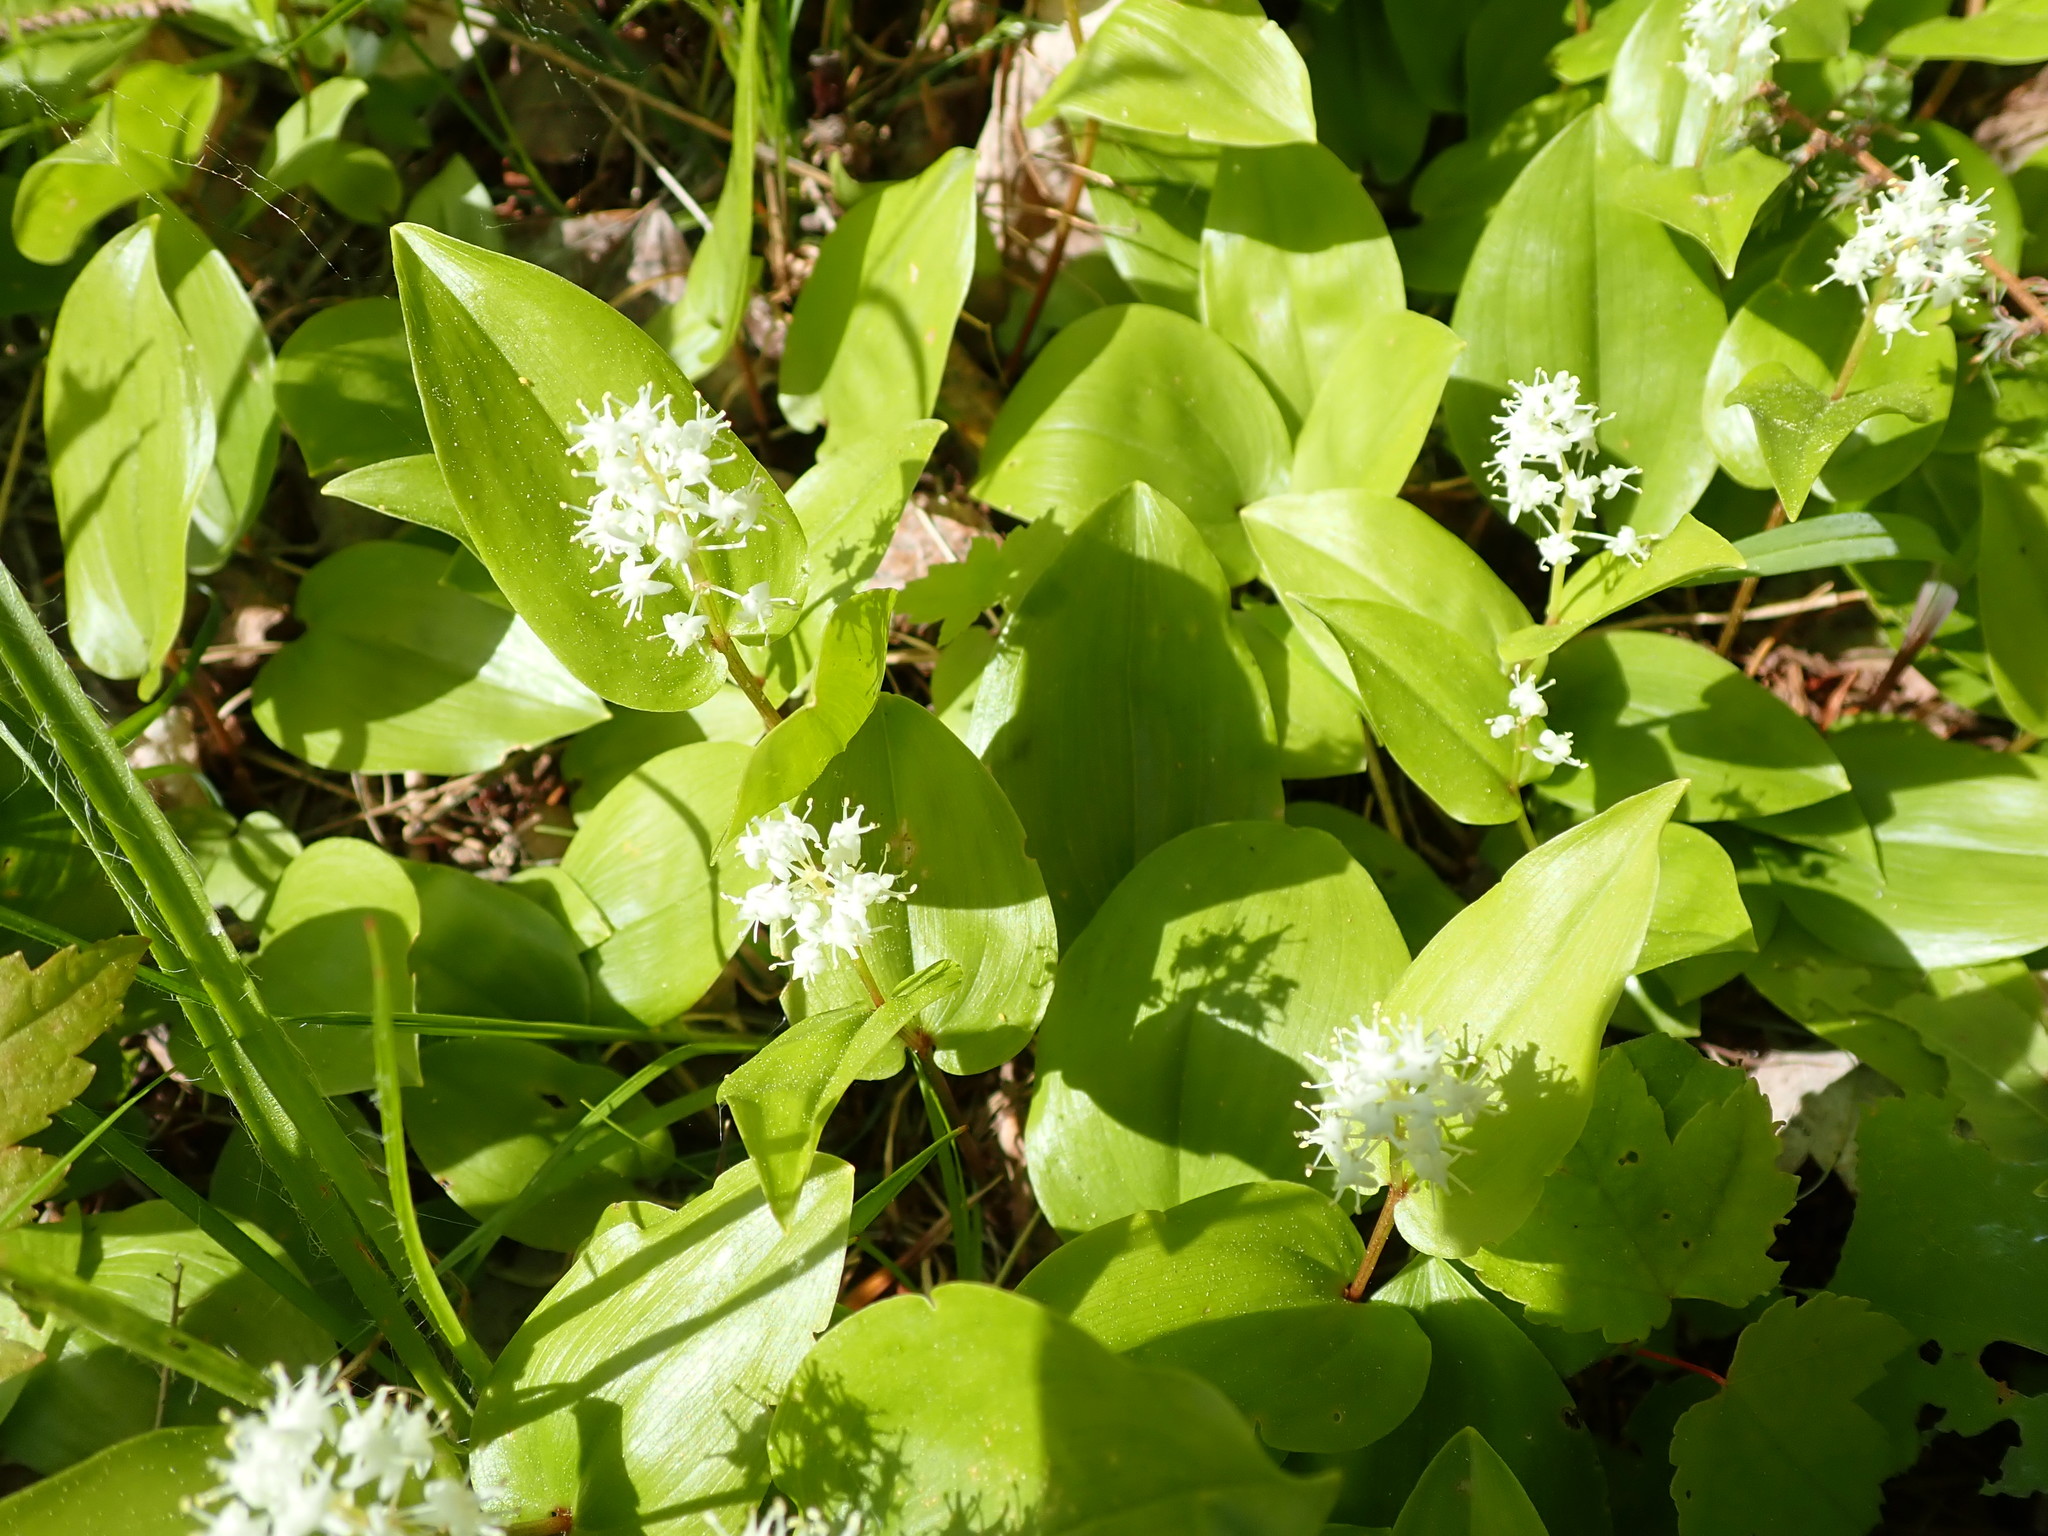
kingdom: Plantae
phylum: Tracheophyta
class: Liliopsida
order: Asparagales
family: Asparagaceae
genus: Maianthemum
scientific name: Maianthemum canadense
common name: False lily-of-the-valley
